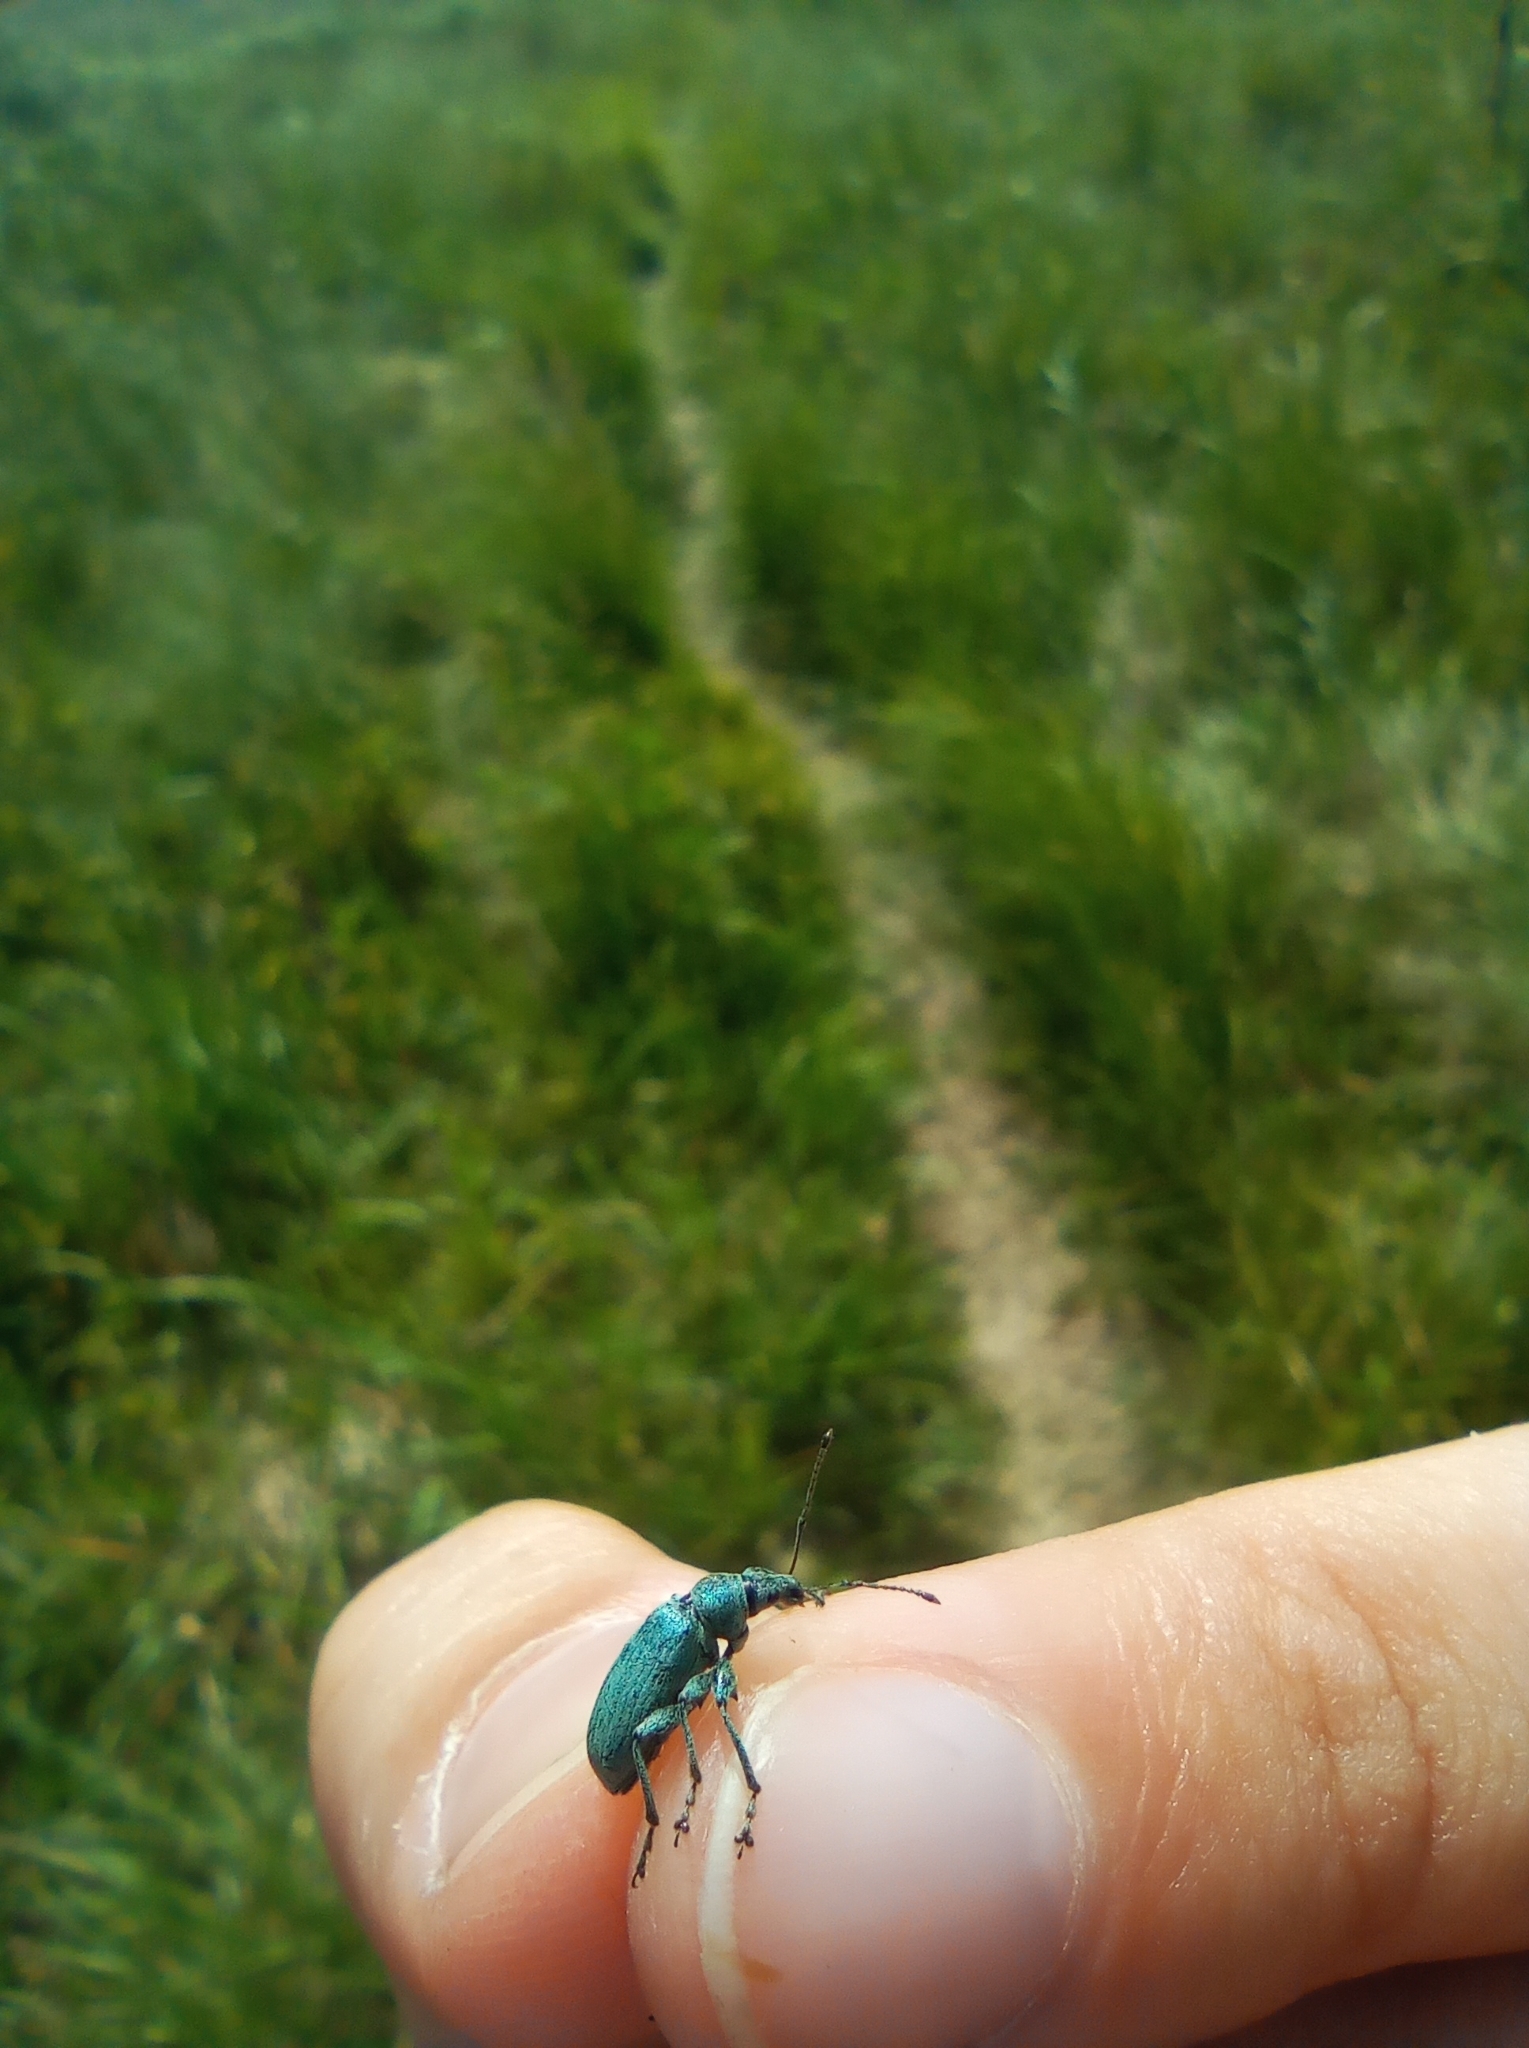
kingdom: Animalia
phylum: Arthropoda
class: Insecta
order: Coleoptera
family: Curculionidae
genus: Phyllobius
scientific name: Phyllobius pomaceus
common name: Green nettle weevil
